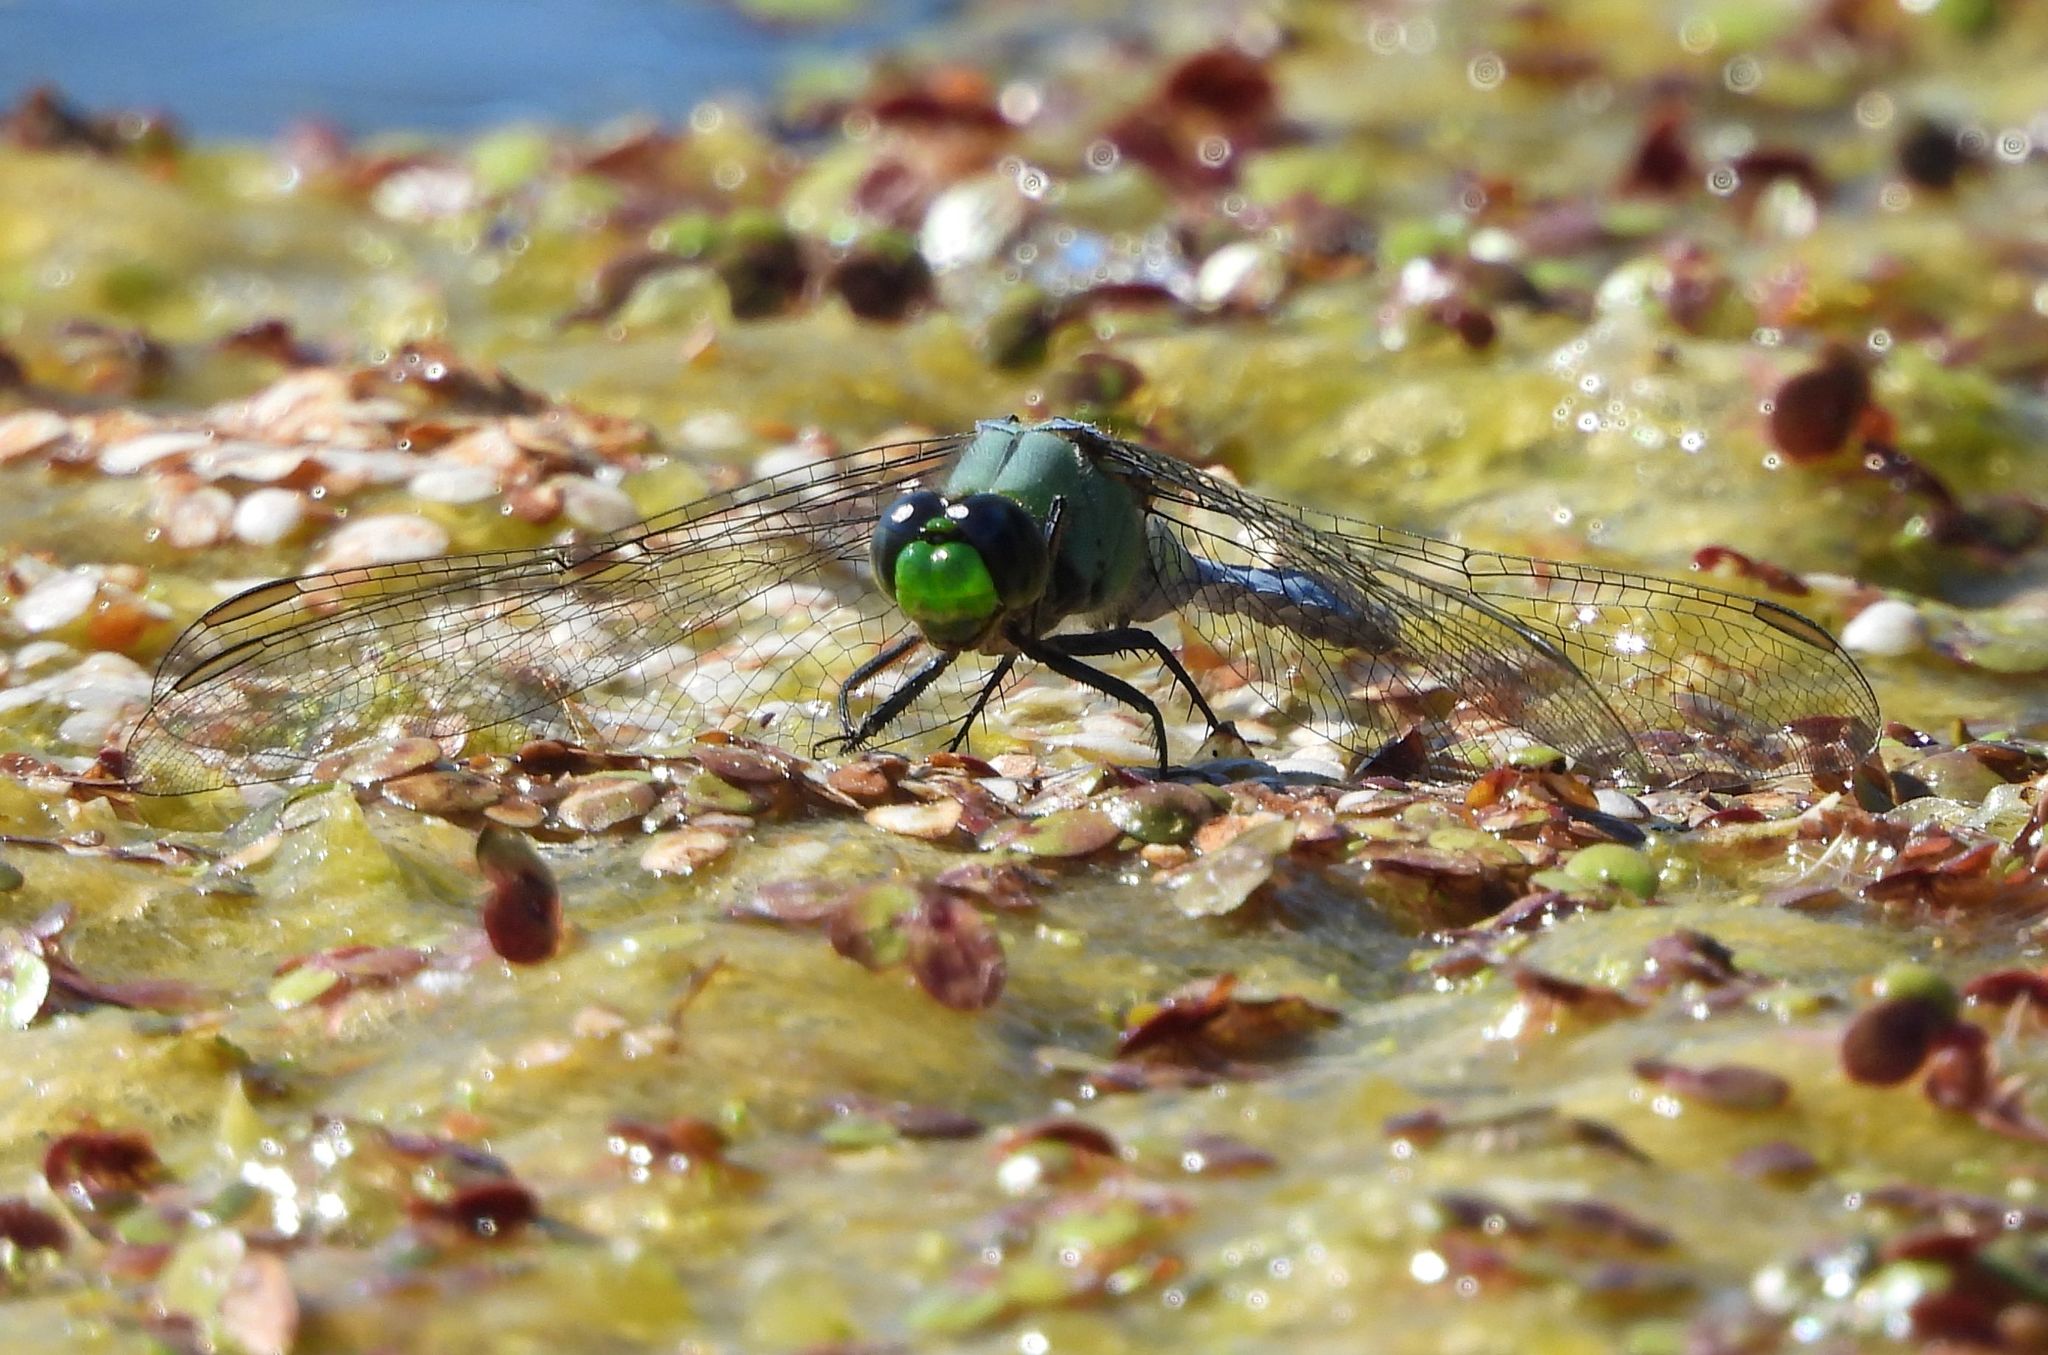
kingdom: Animalia
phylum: Arthropoda
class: Insecta
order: Odonata
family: Libellulidae
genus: Erythemis
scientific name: Erythemis simplicicollis
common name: Eastern pondhawk
